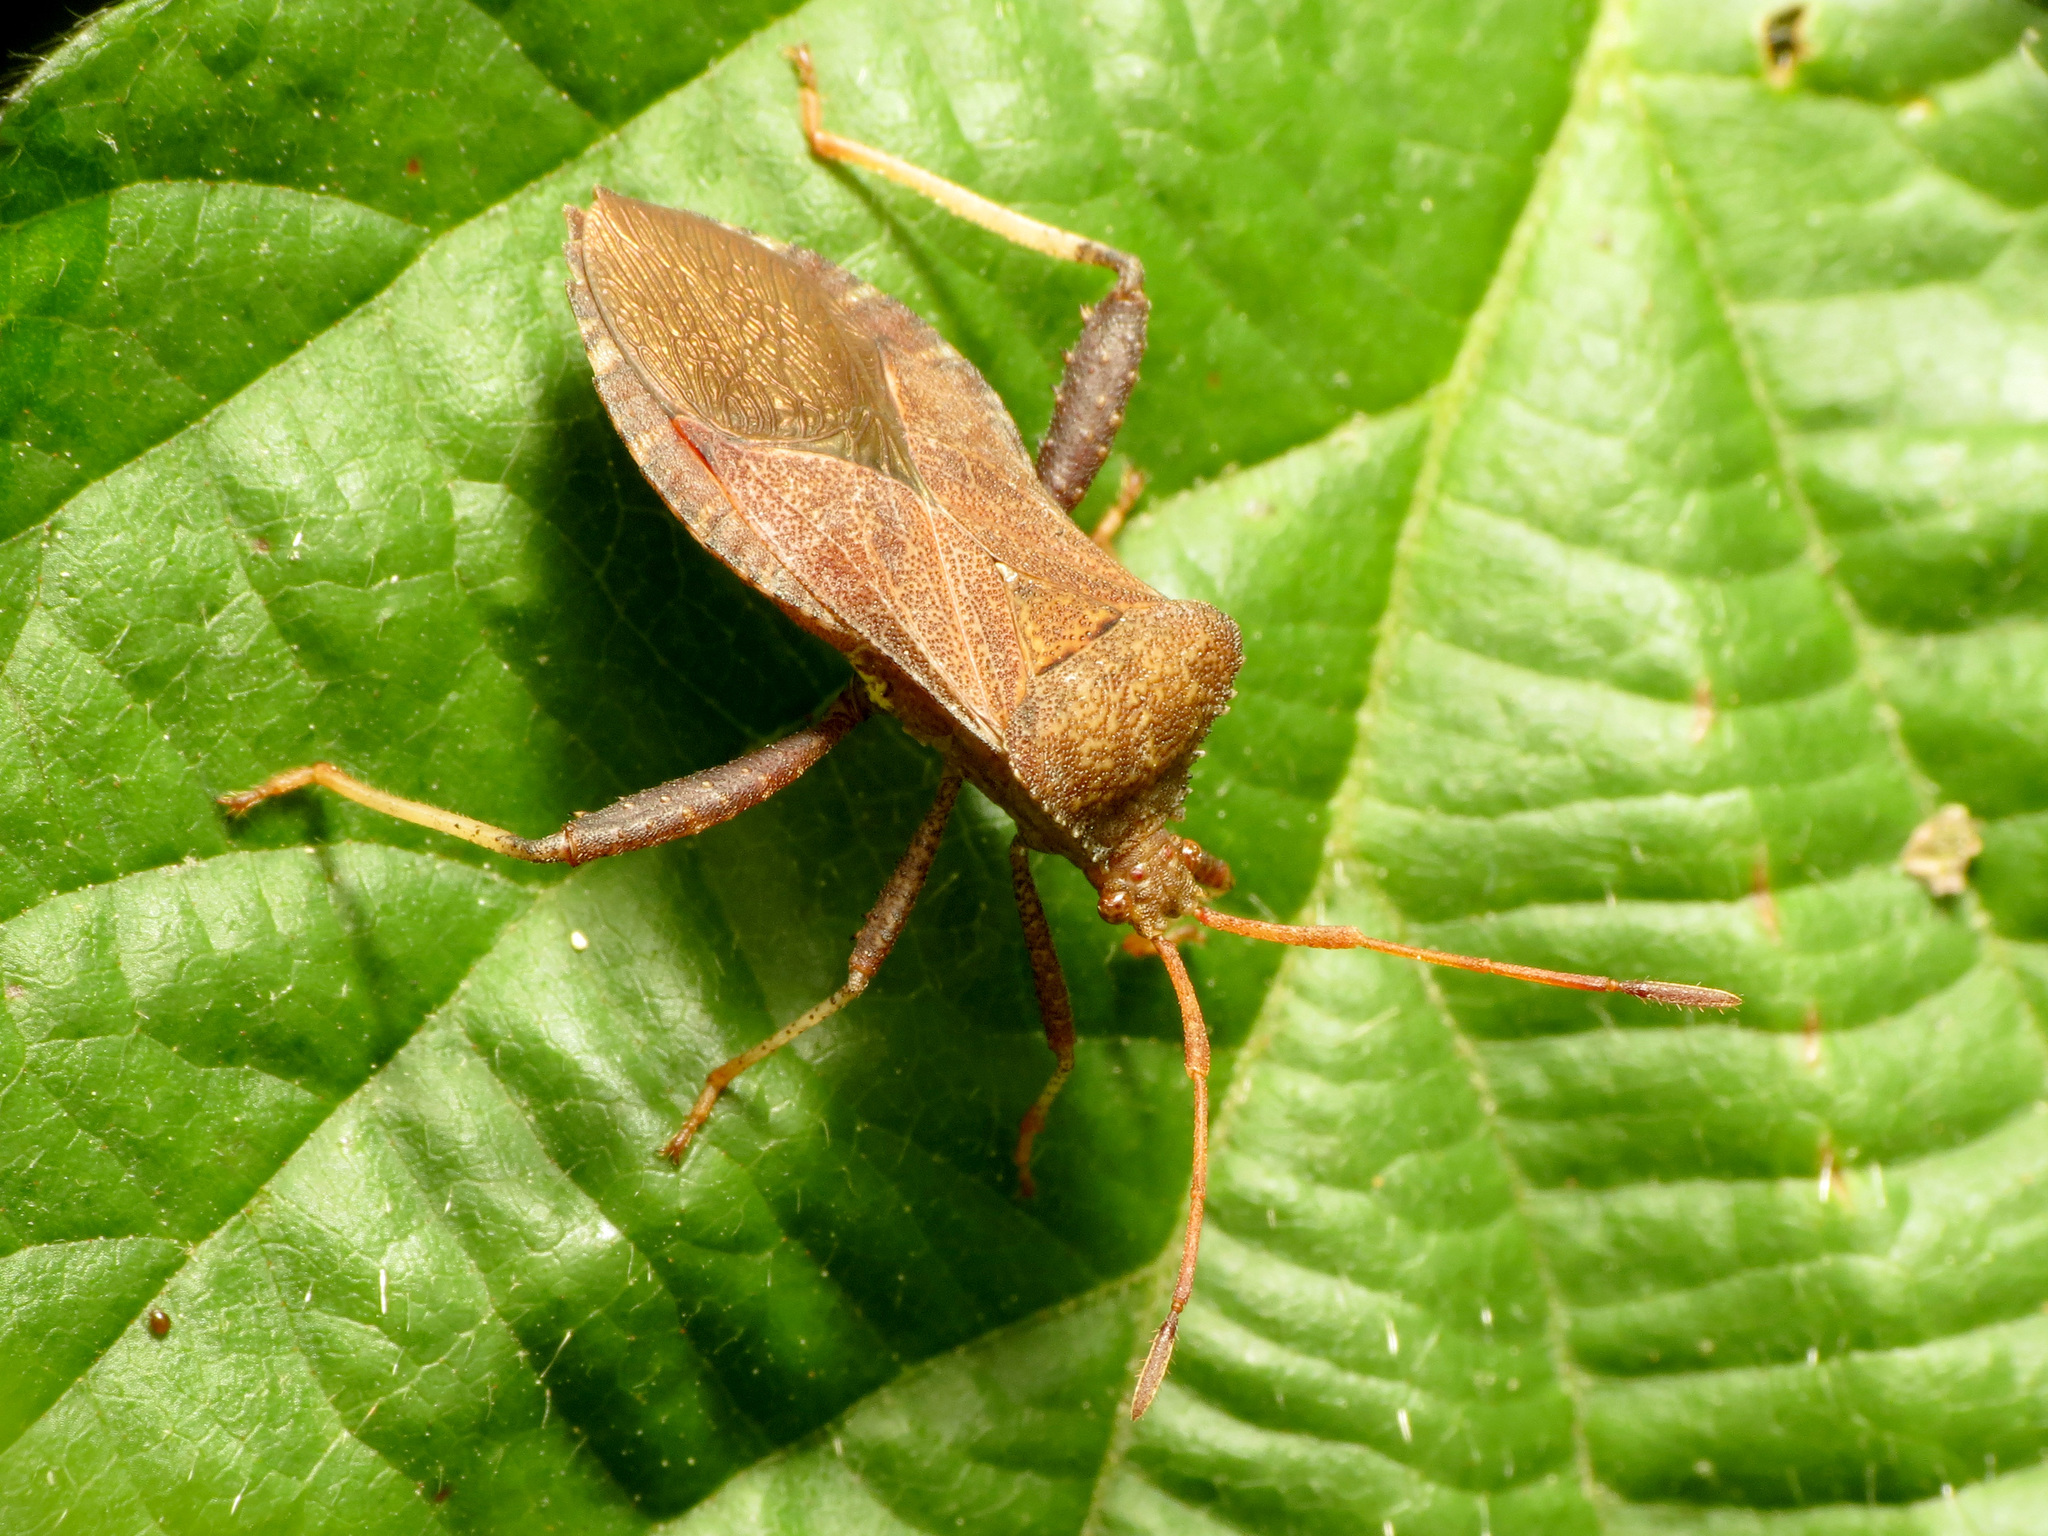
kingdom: Animalia
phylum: Arthropoda
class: Insecta
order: Hemiptera
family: Coreidae
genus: Euthochtha
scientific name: Euthochtha galeator
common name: Helmeted squash bug
